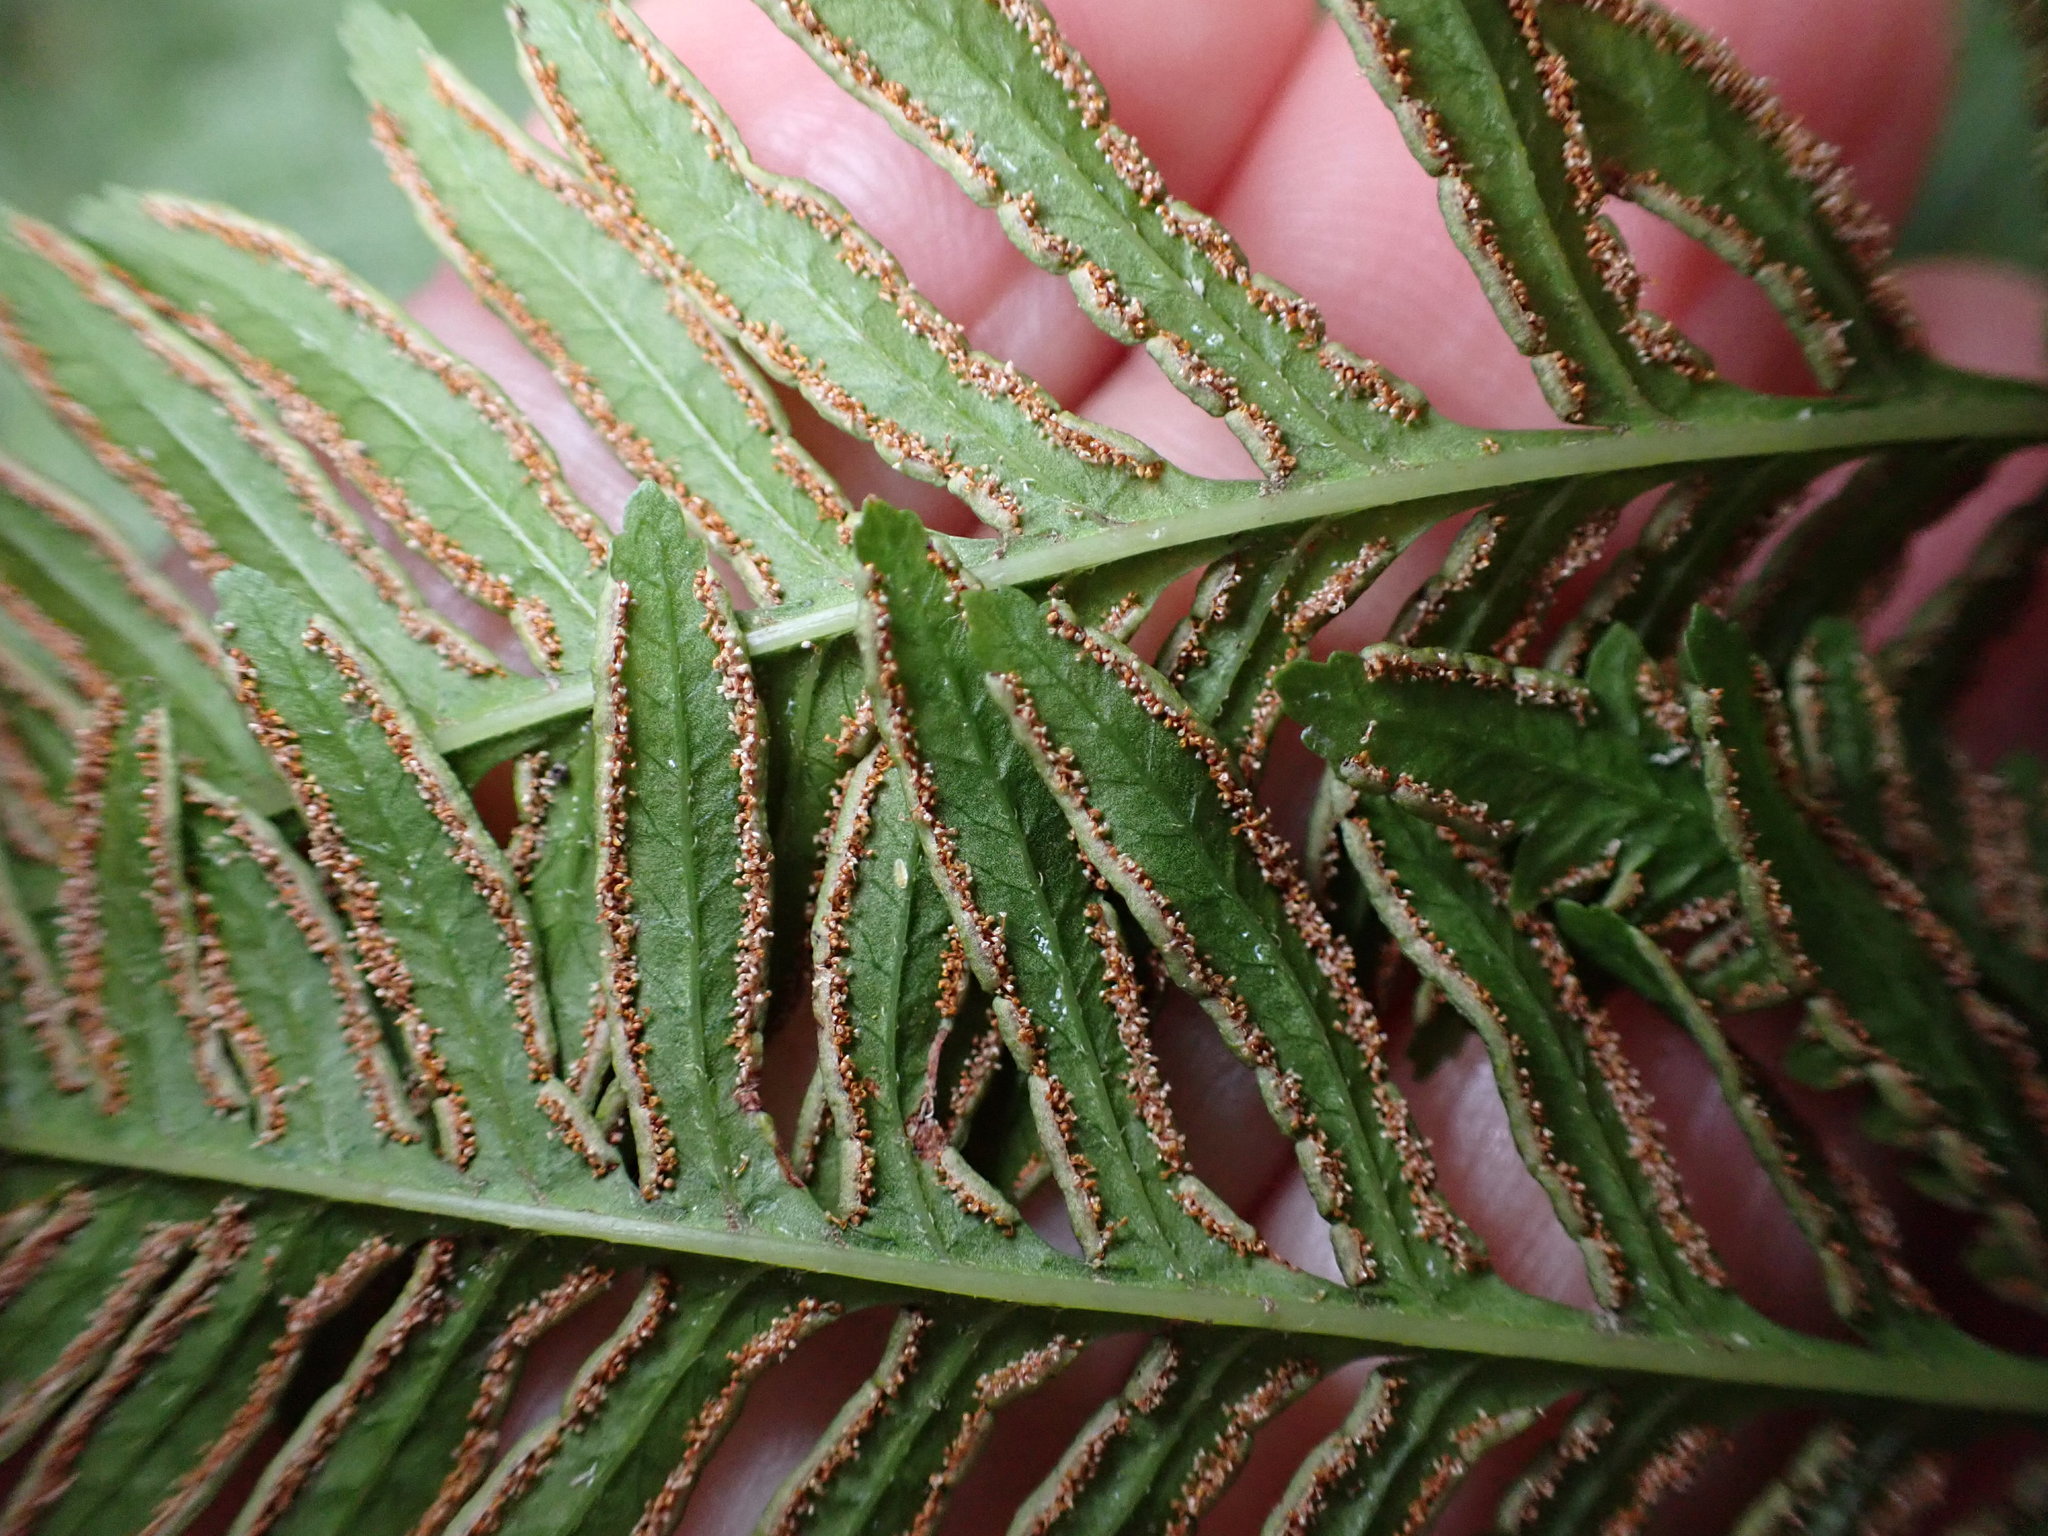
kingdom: Plantae
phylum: Tracheophyta
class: Polypodiopsida
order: Polypodiales
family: Pteridaceae
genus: Pteris
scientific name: Pteris tremula
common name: Australian brake
